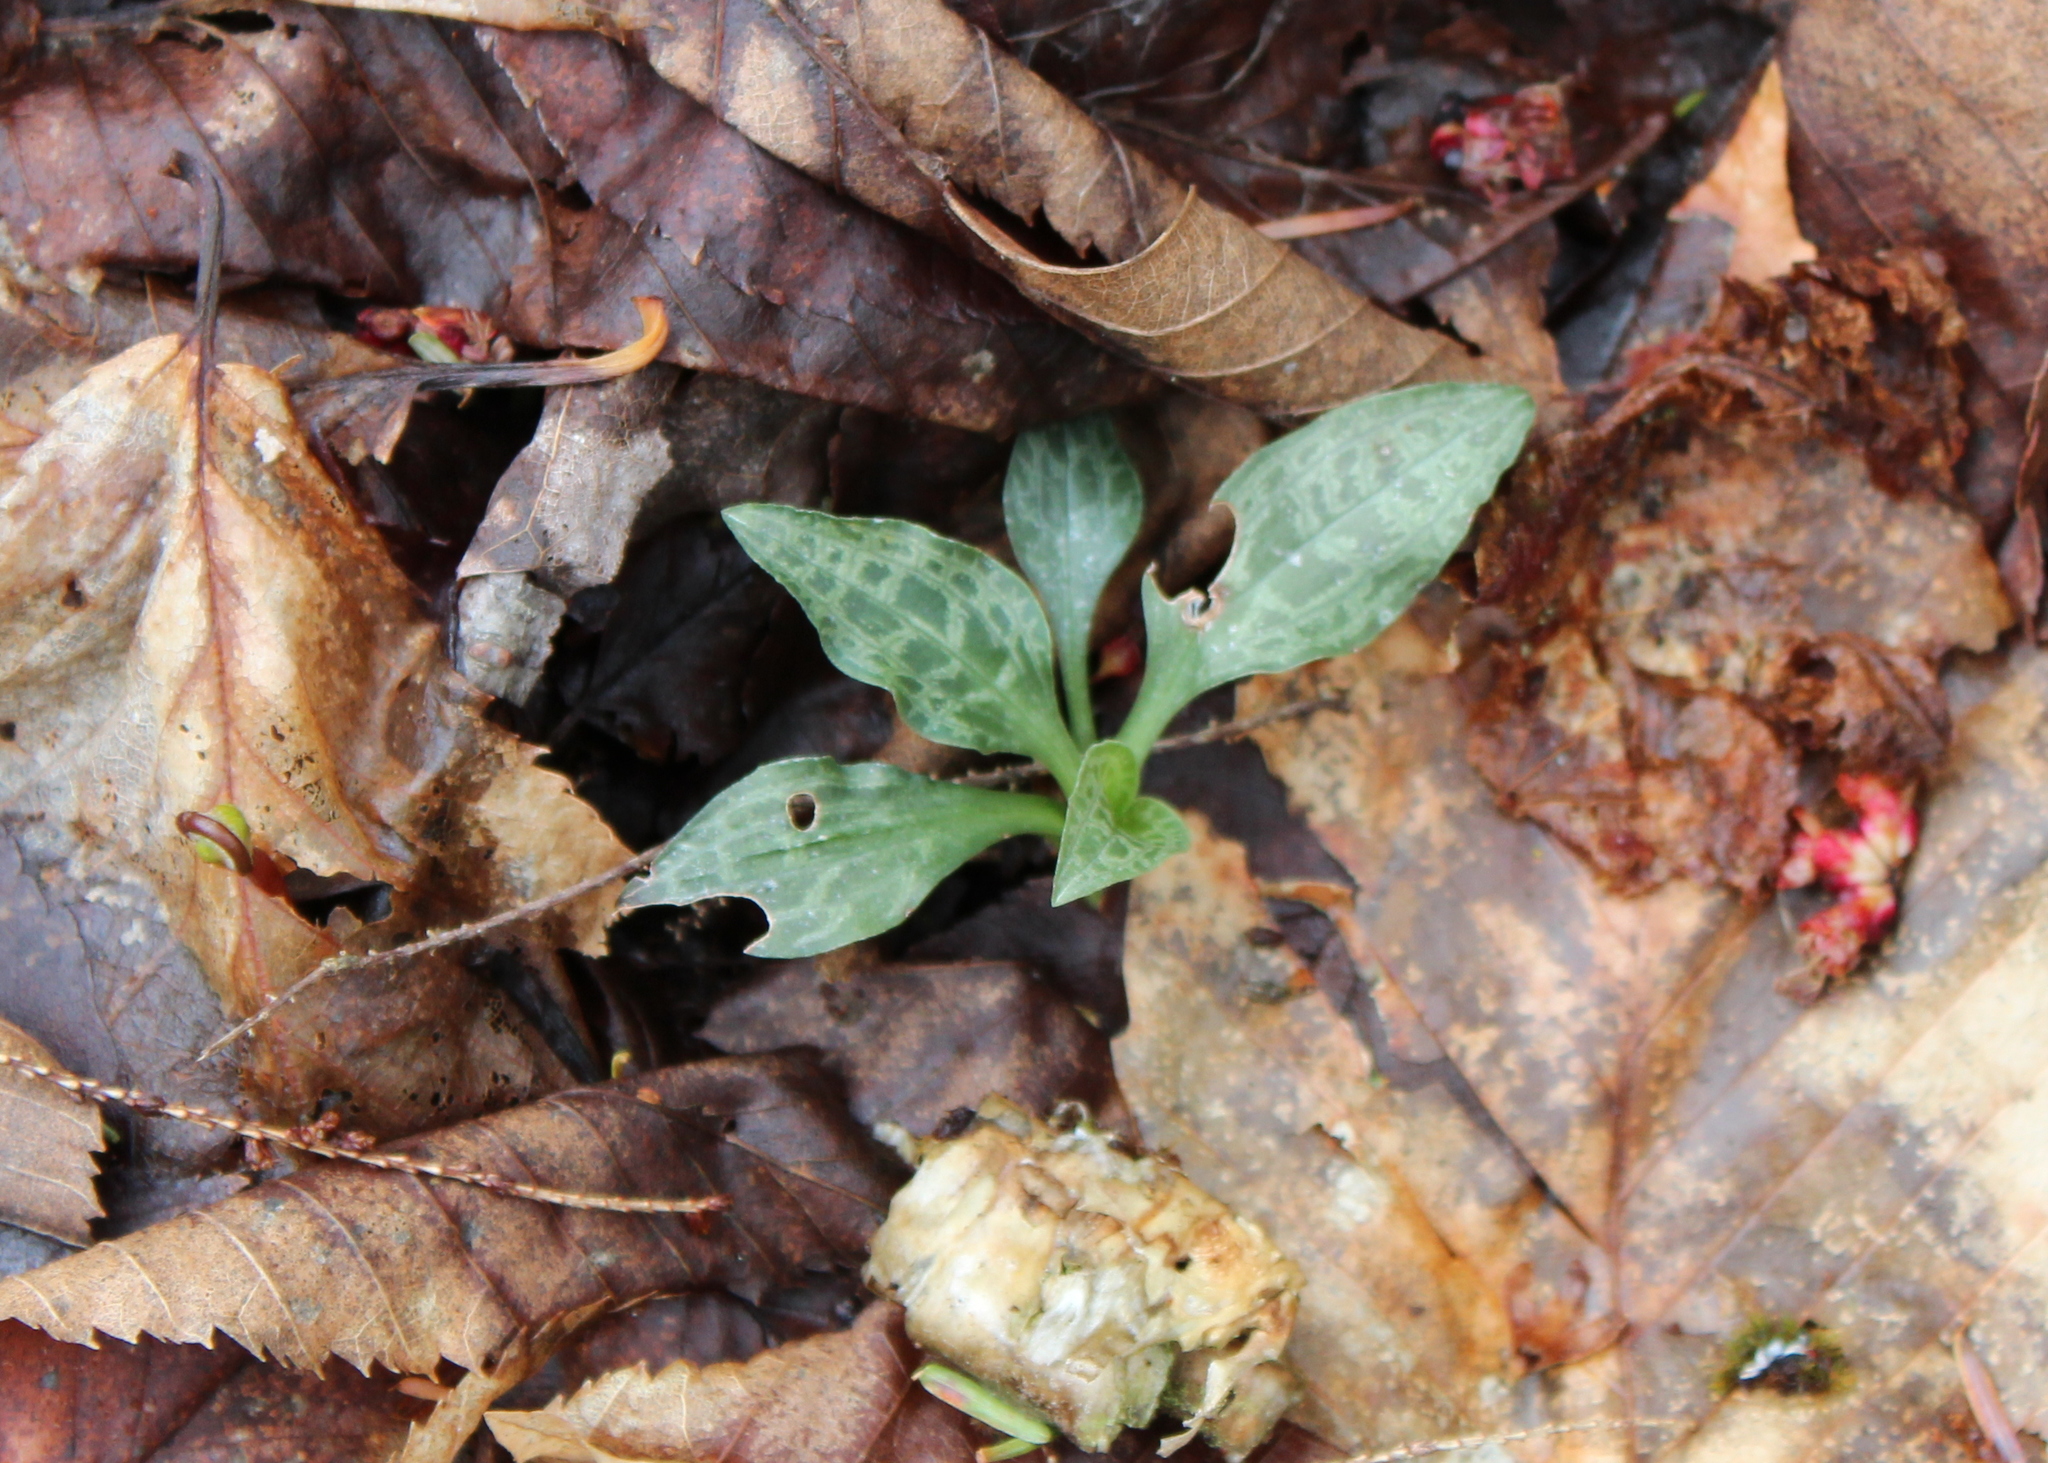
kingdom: Plantae
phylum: Tracheophyta
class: Liliopsida
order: Asparagales
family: Orchidaceae
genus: Goodyera
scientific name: Goodyera tesselata
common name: Checkered rattlesnake-plantain
